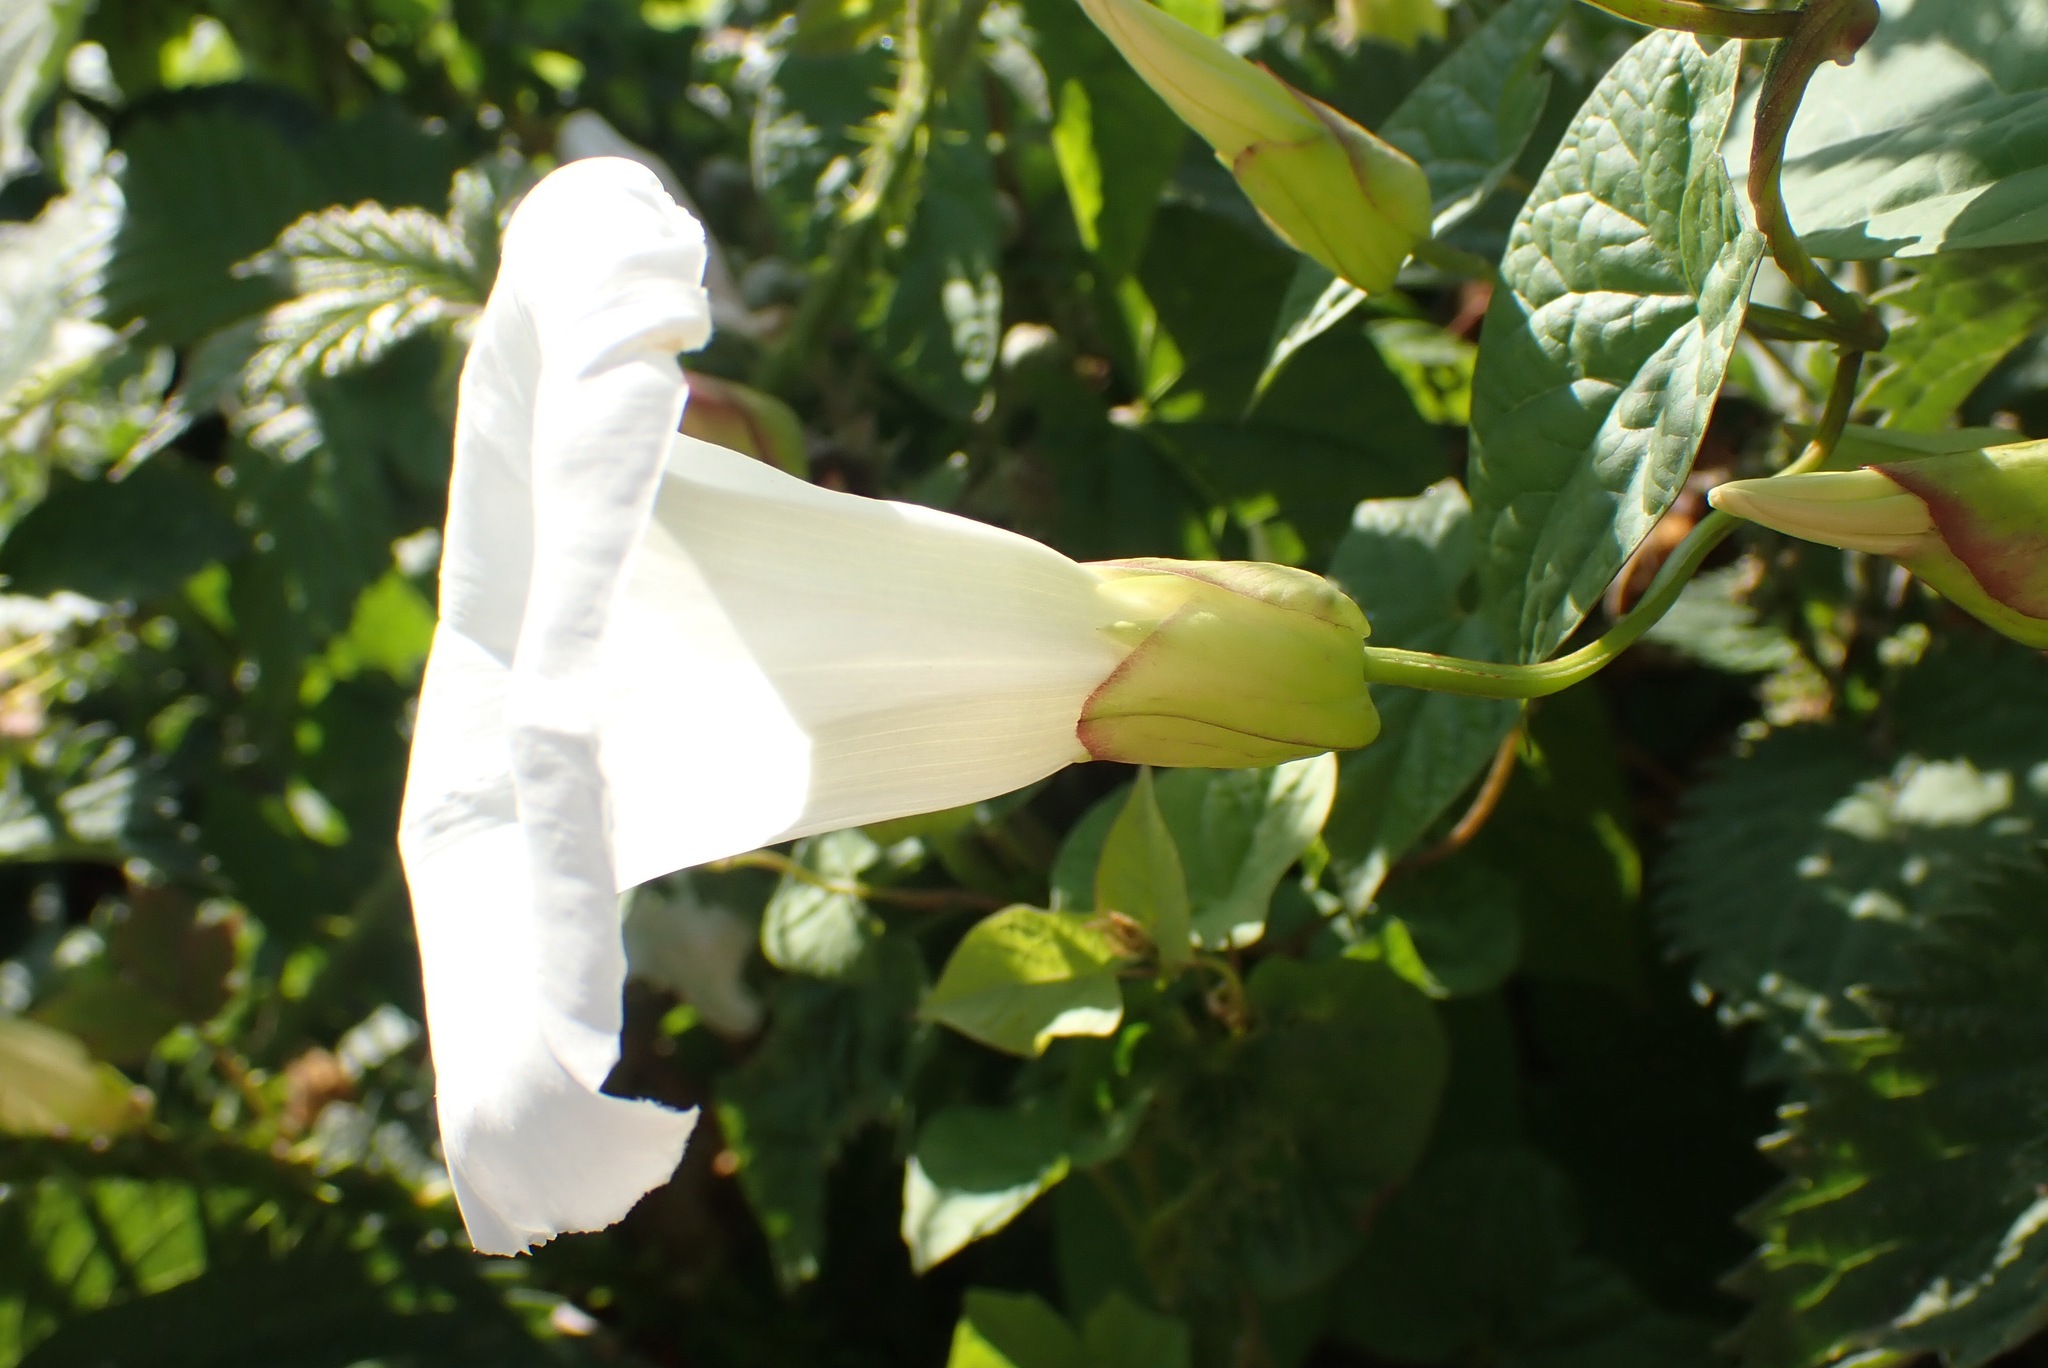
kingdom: Plantae
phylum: Tracheophyta
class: Magnoliopsida
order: Solanales
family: Convolvulaceae
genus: Calystegia
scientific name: Calystegia silvatica
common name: Large bindweed
